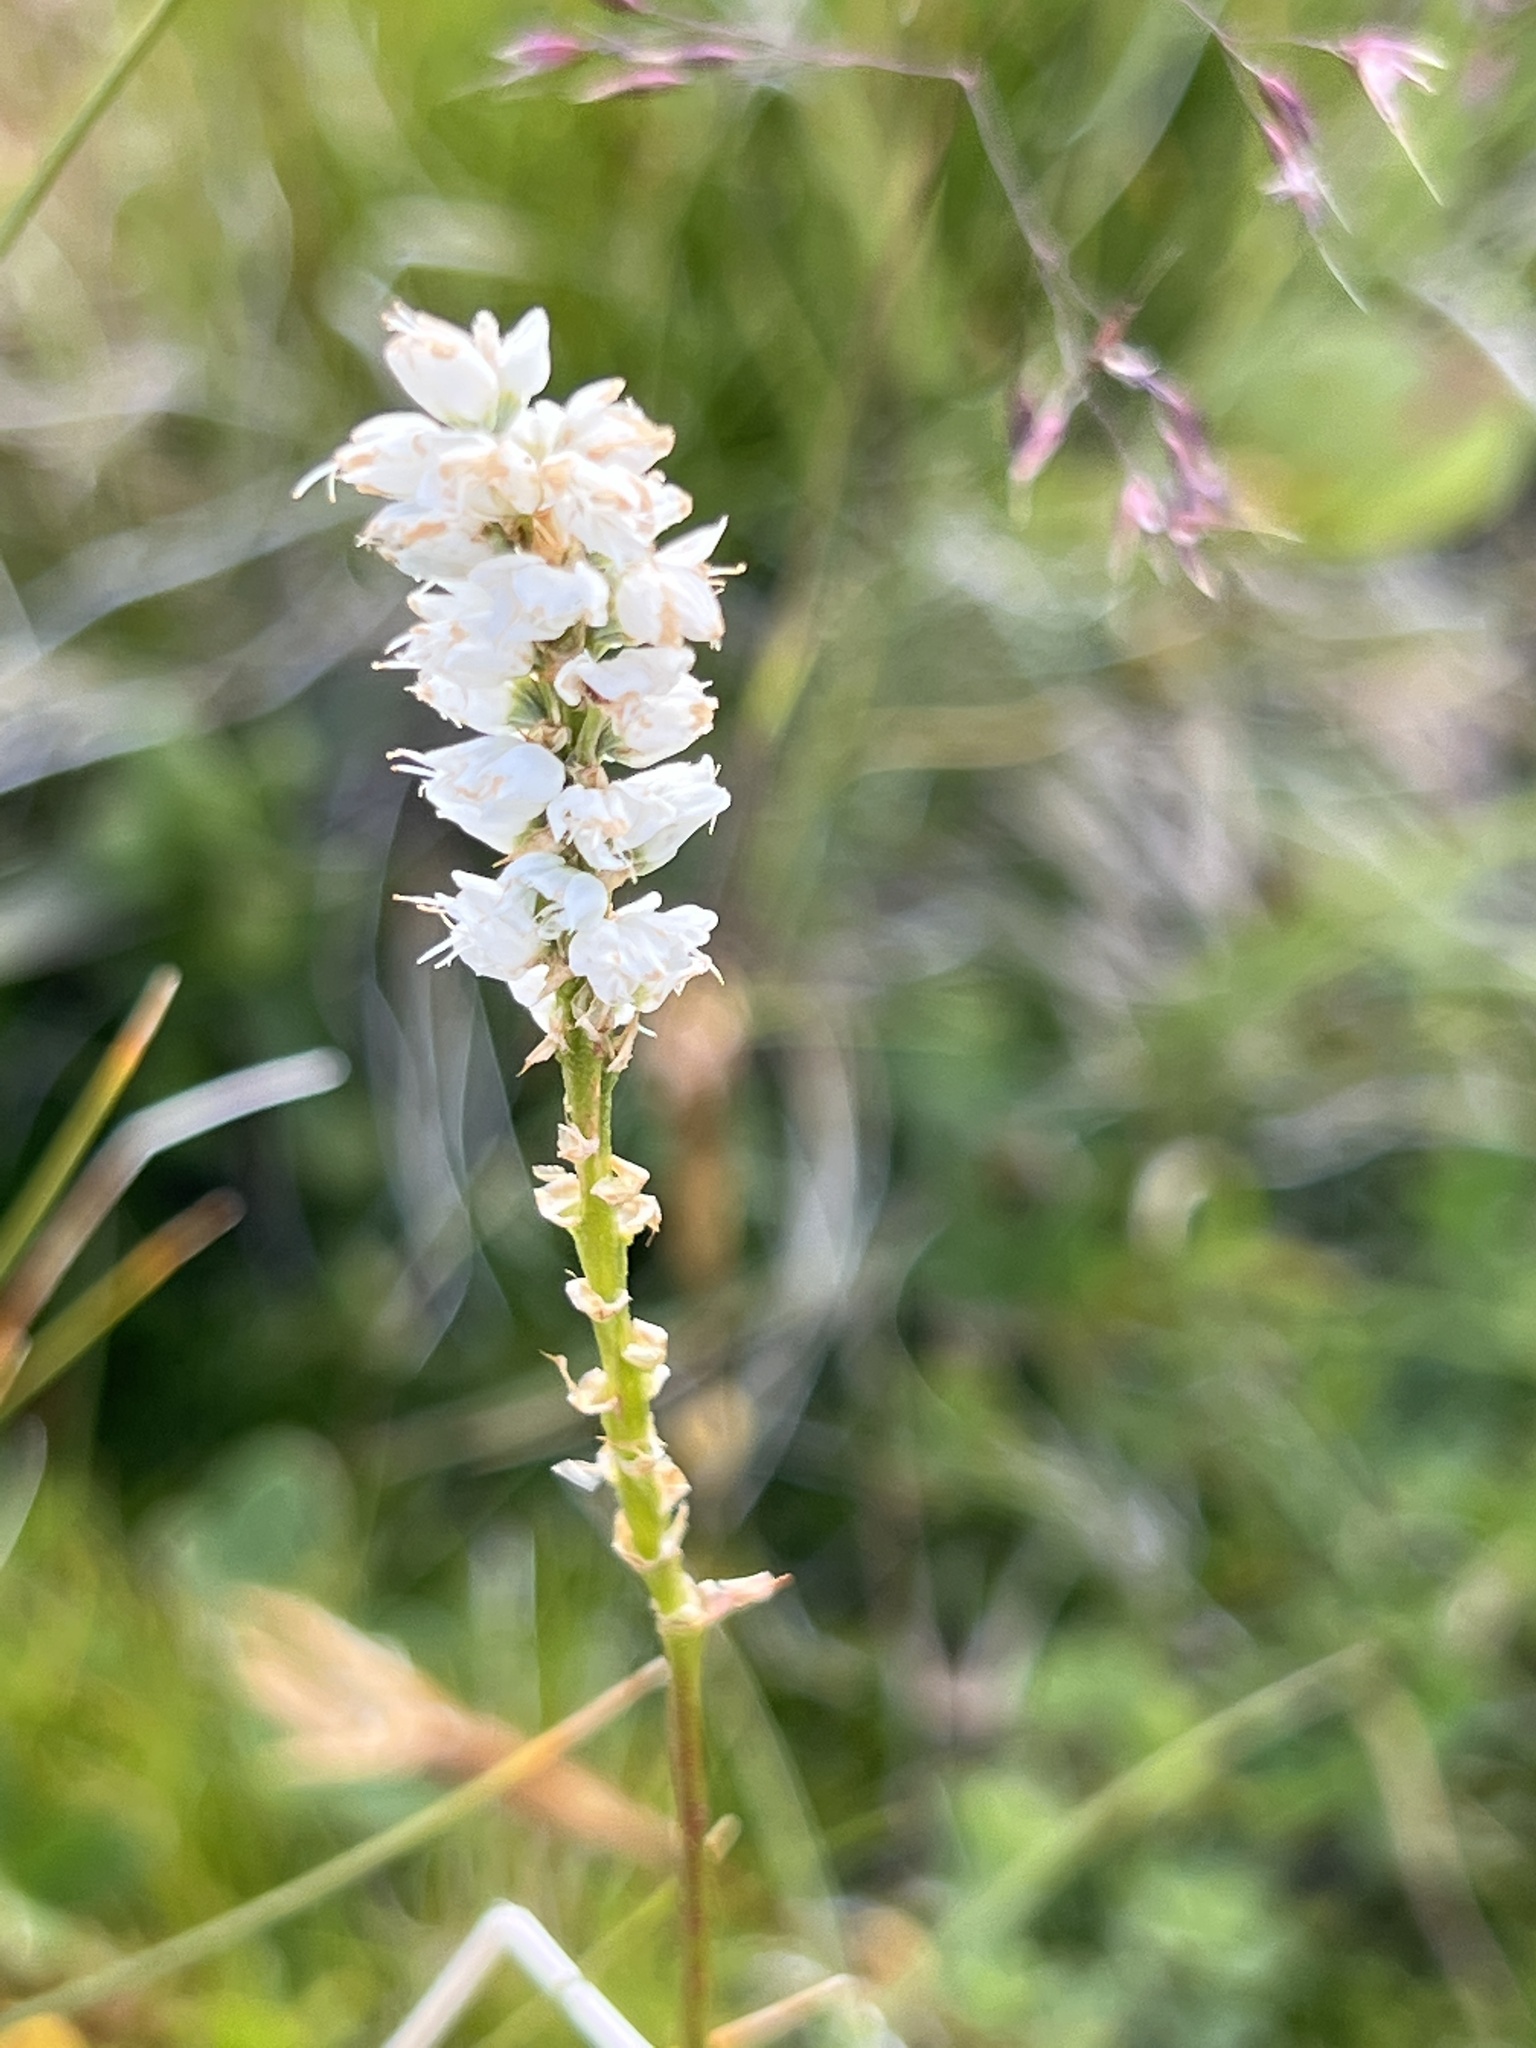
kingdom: Plantae
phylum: Tracheophyta
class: Magnoliopsida
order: Caryophyllales
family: Polygonaceae
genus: Bistorta
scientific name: Bistorta vivipara
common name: Alpine bistort
